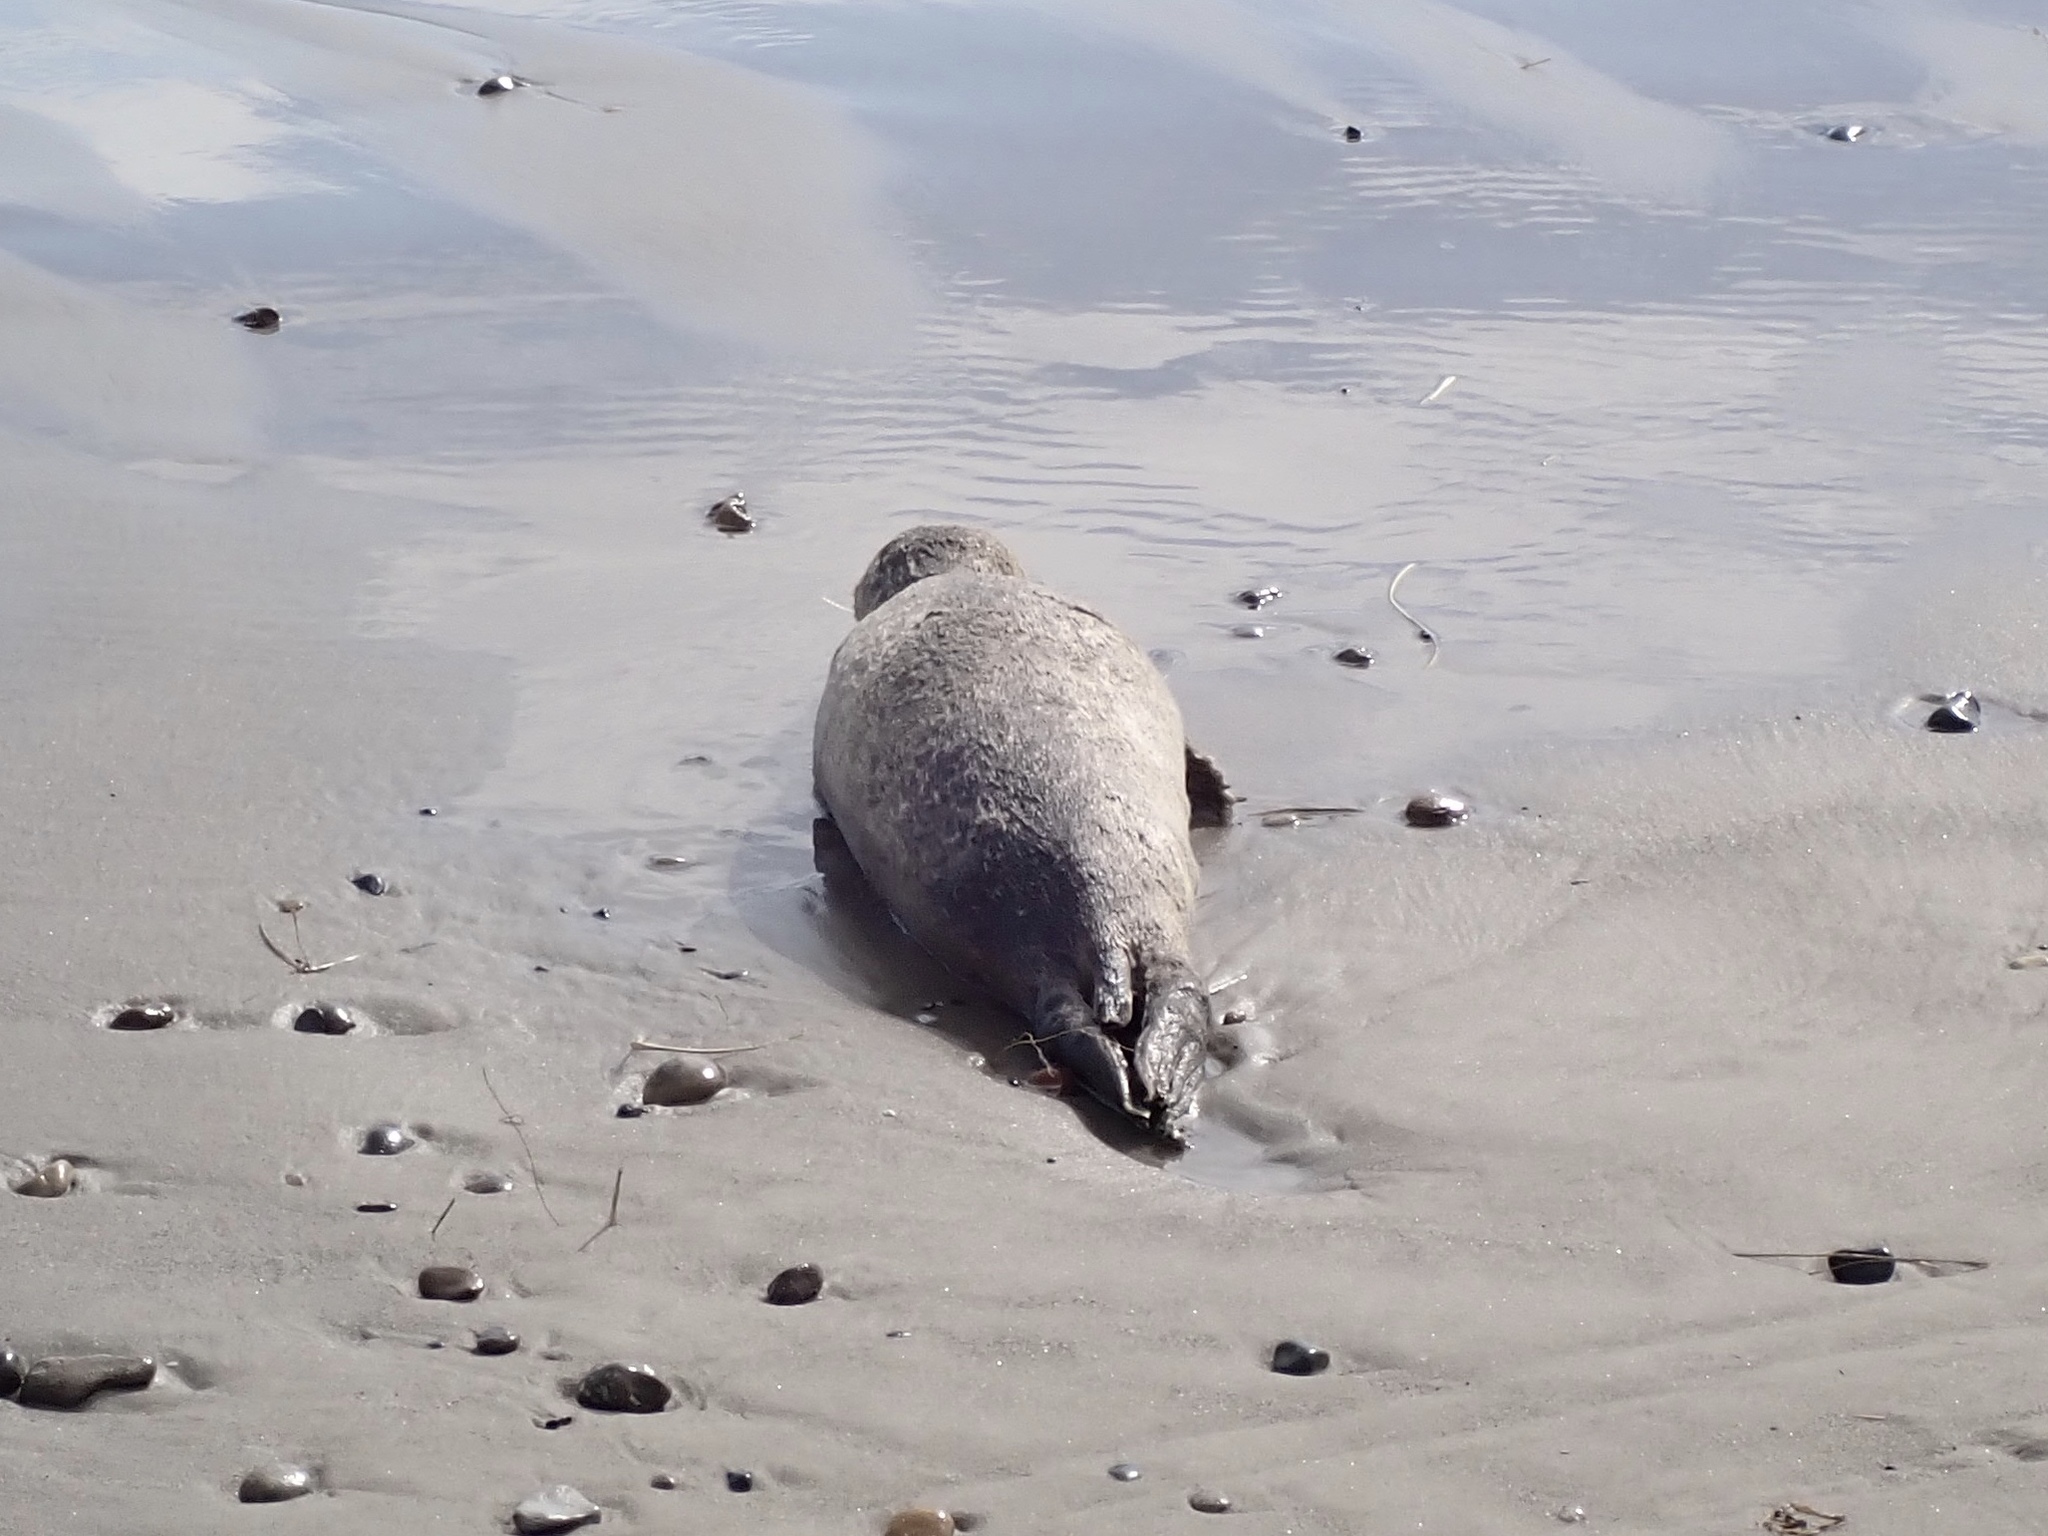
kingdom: Animalia
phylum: Chordata
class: Mammalia
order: Carnivora
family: Phocidae
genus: Phoca
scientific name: Phoca vitulina
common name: Harbor seal
